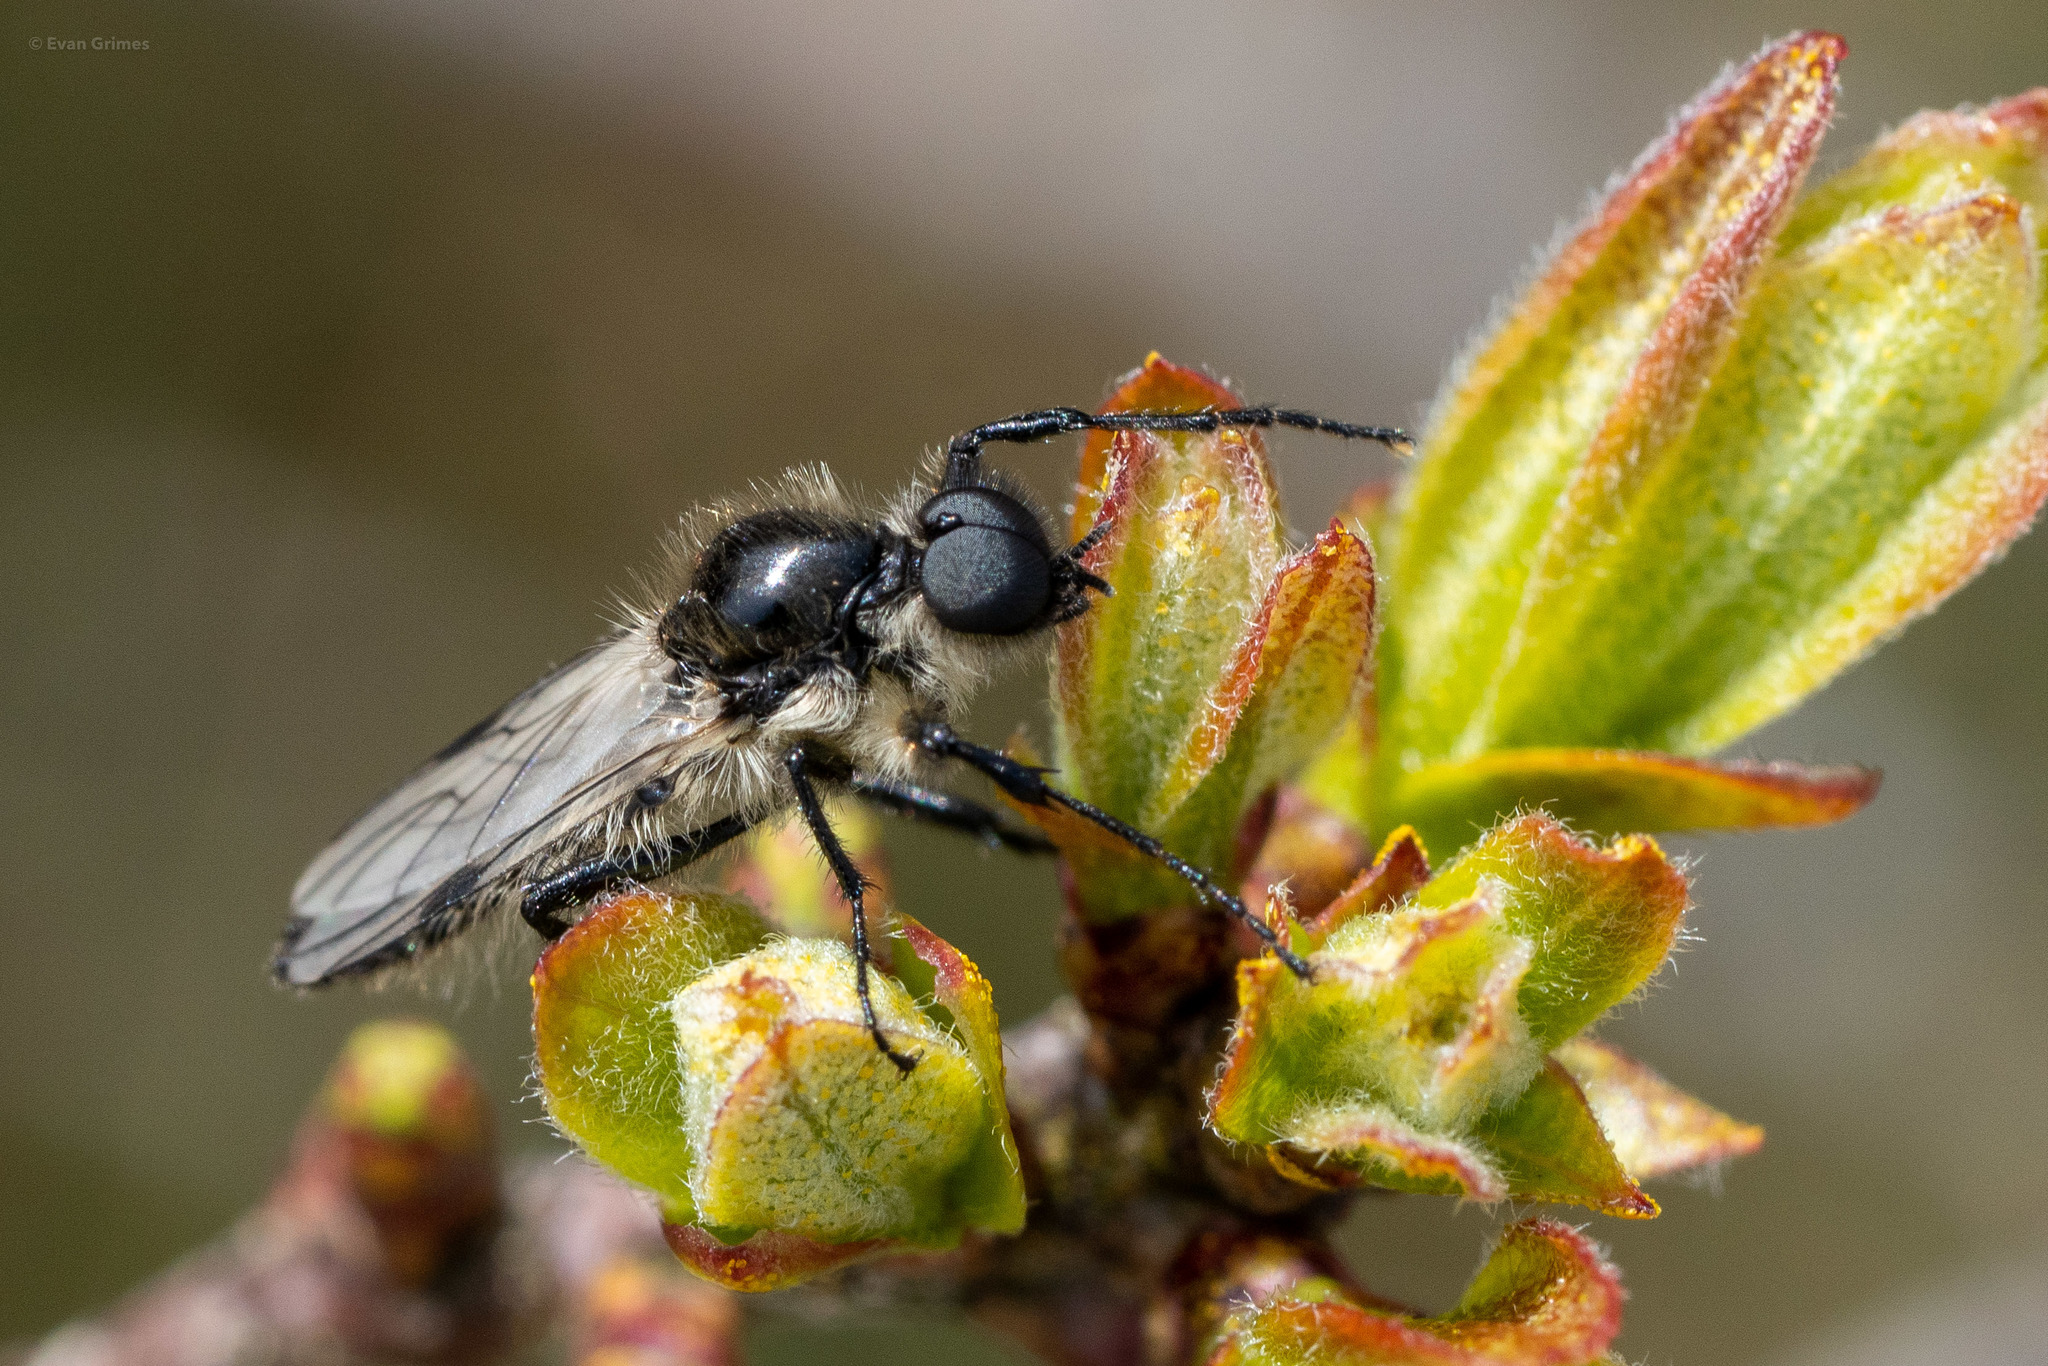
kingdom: Animalia
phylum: Arthropoda
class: Insecta
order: Diptera
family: Bibionidae
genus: Bibio
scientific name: Bibio albipennis
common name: White-winged march fly
